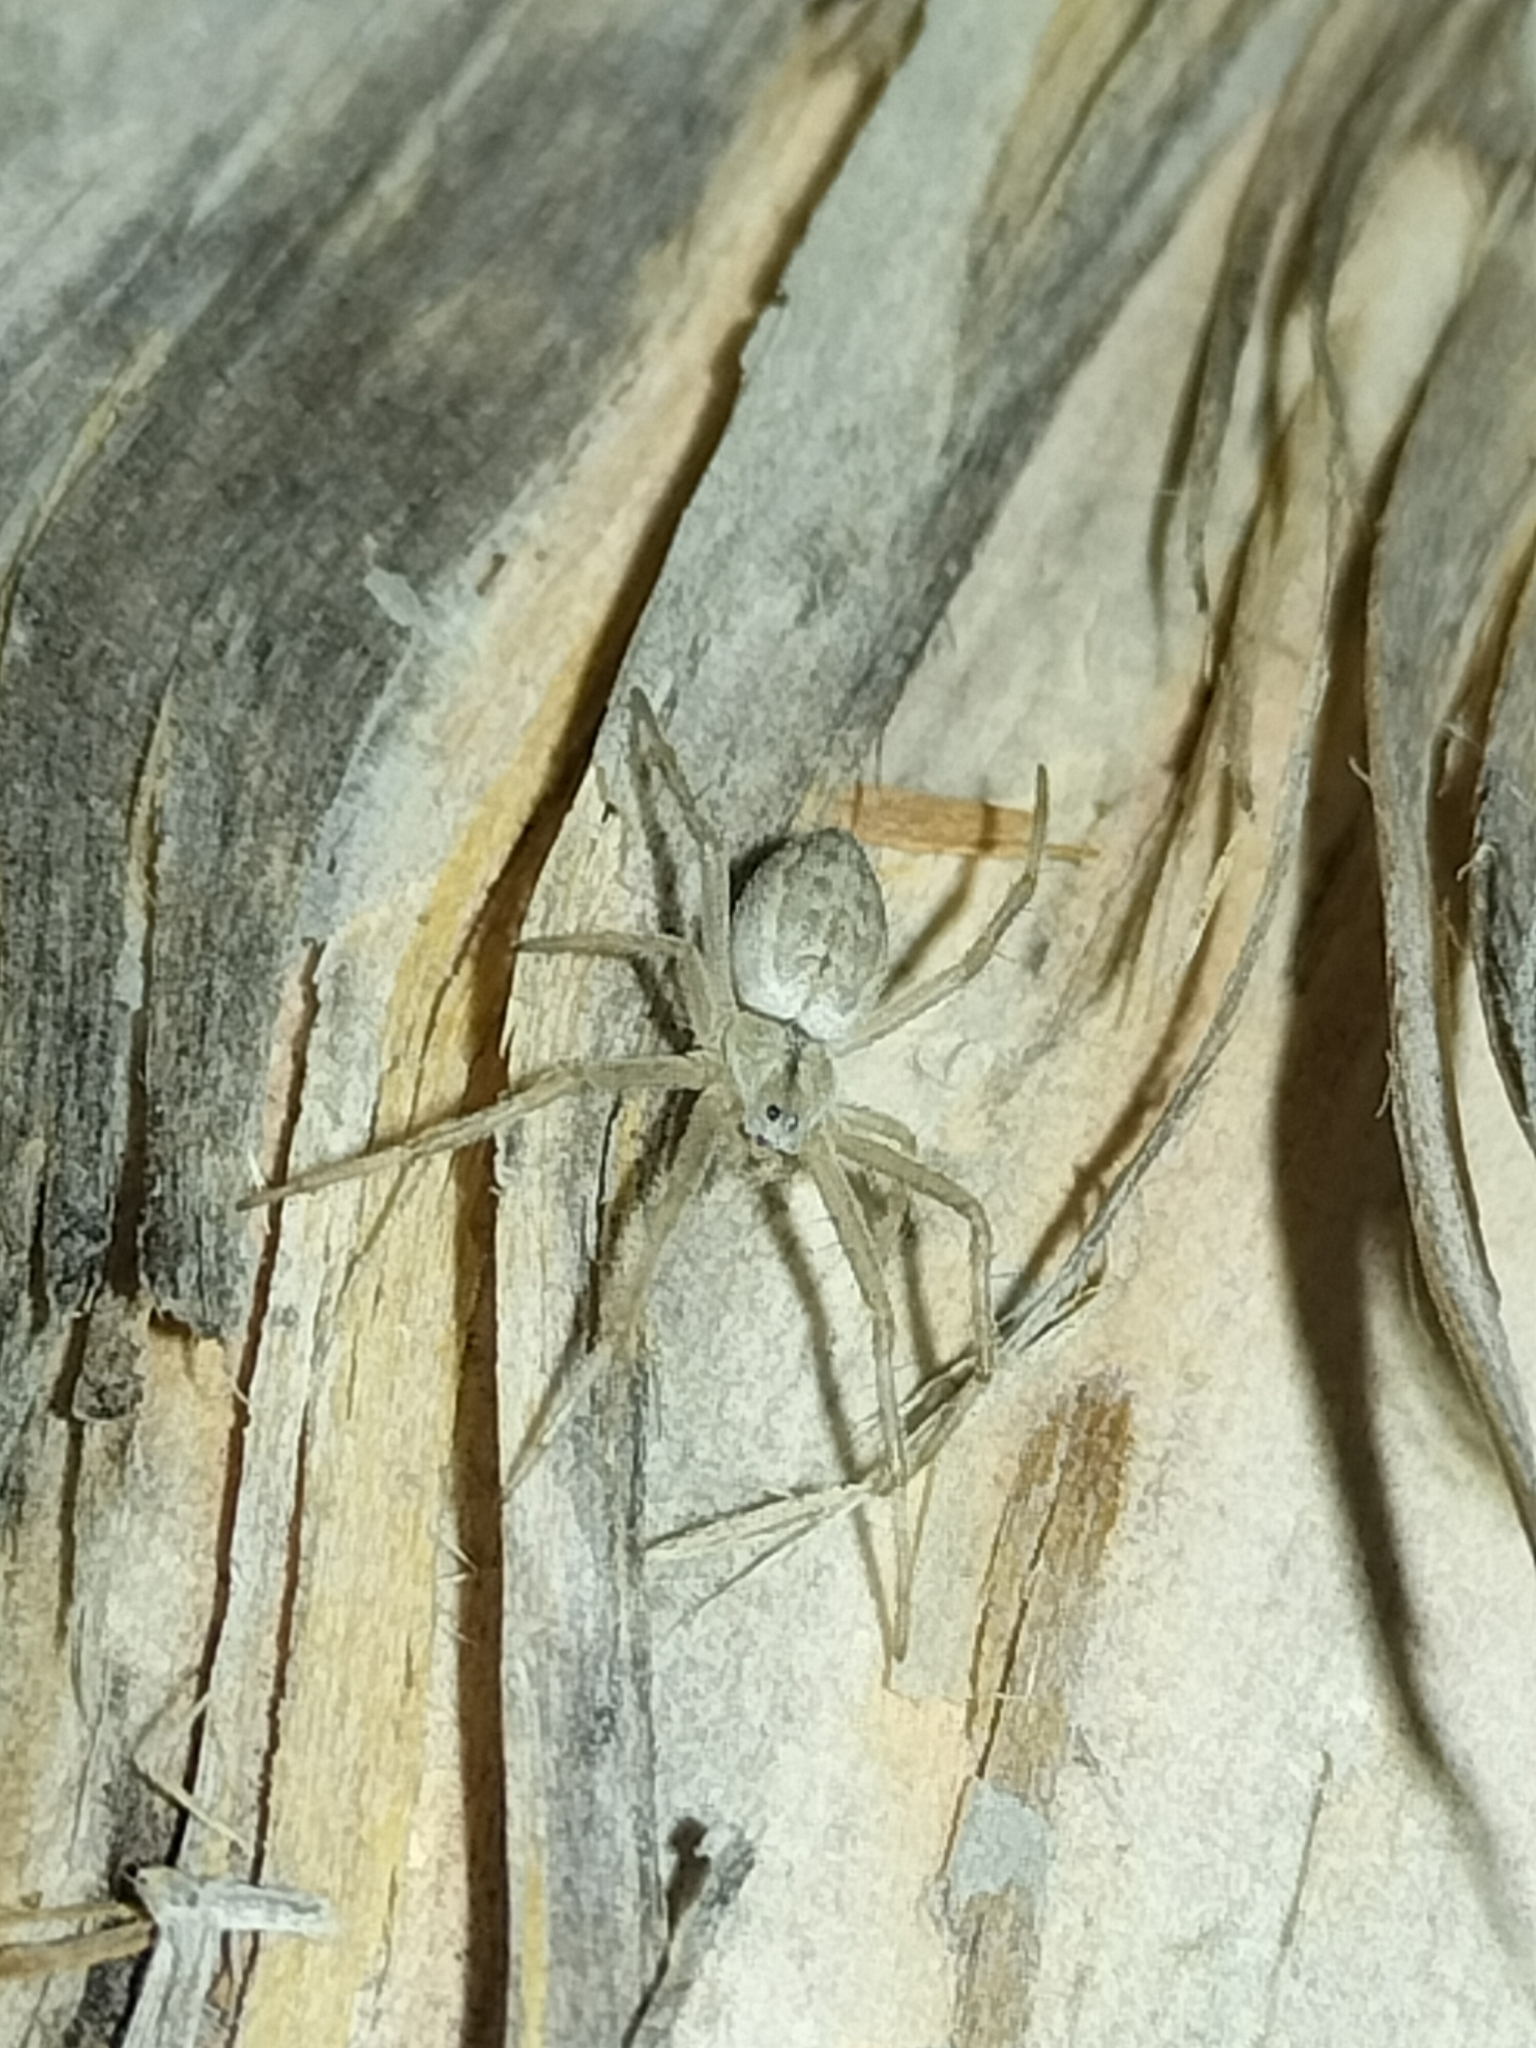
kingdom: Animalia
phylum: Arthropoda
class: Arachnida
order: Araneae
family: Araneidae
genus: Argiope
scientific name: Argiope ocyaloides
